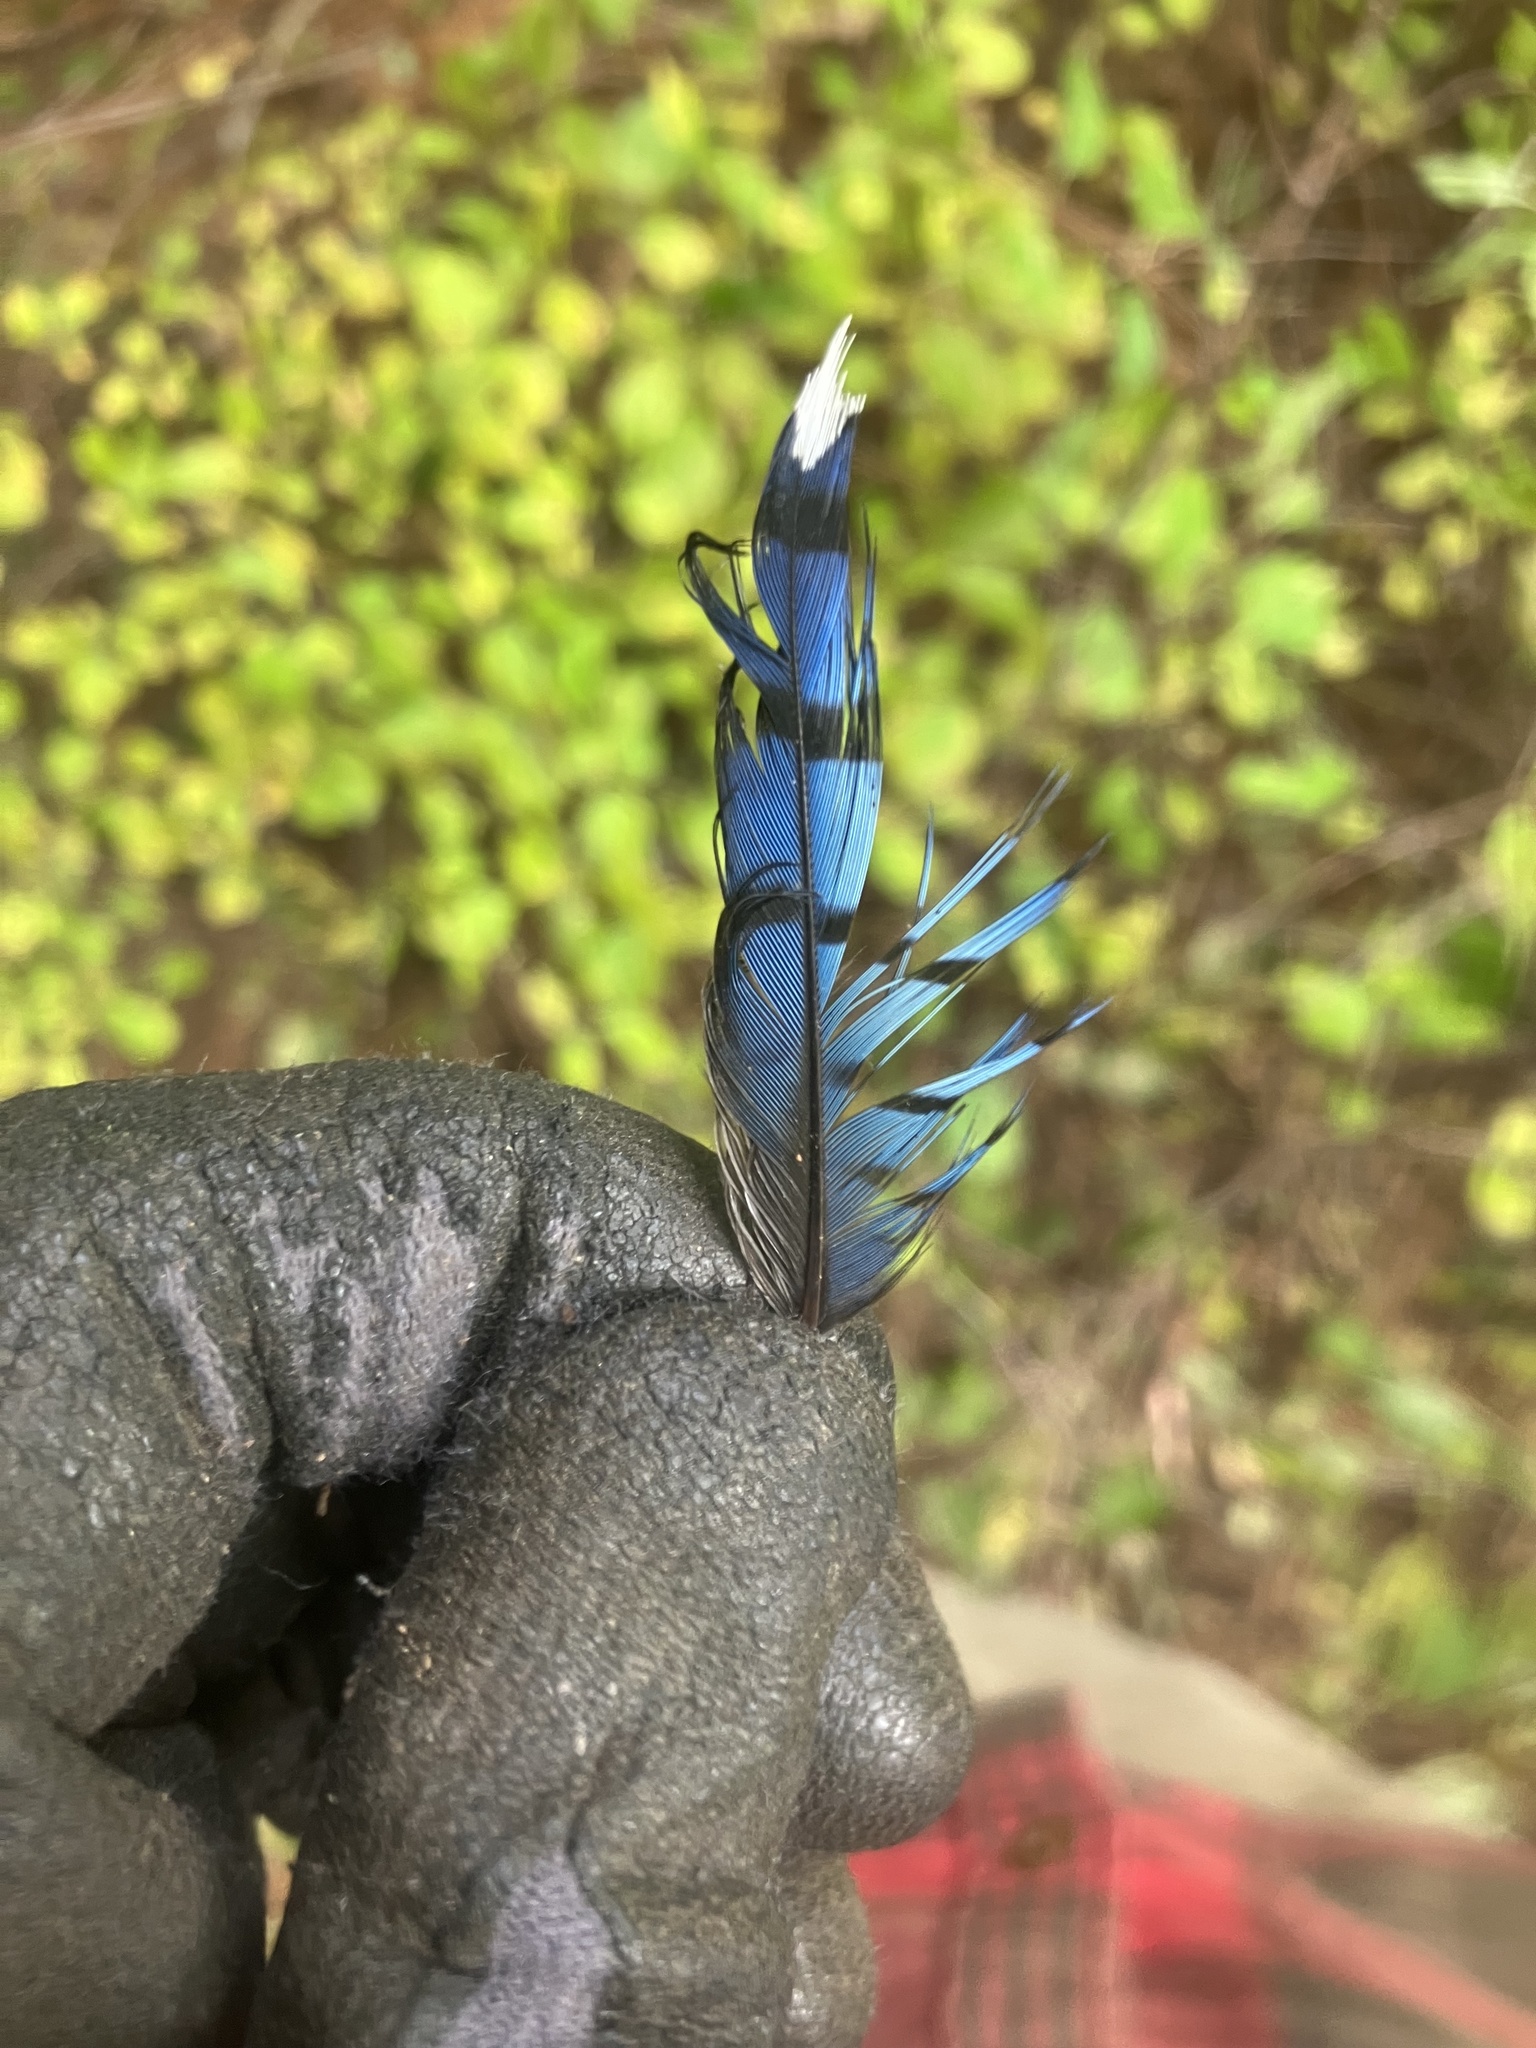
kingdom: Animalia
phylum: Chordata
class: Aves
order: Passeriformes
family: Corvidae
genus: Cyanocitta
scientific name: Cyanocitta cristata
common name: Blue jay
